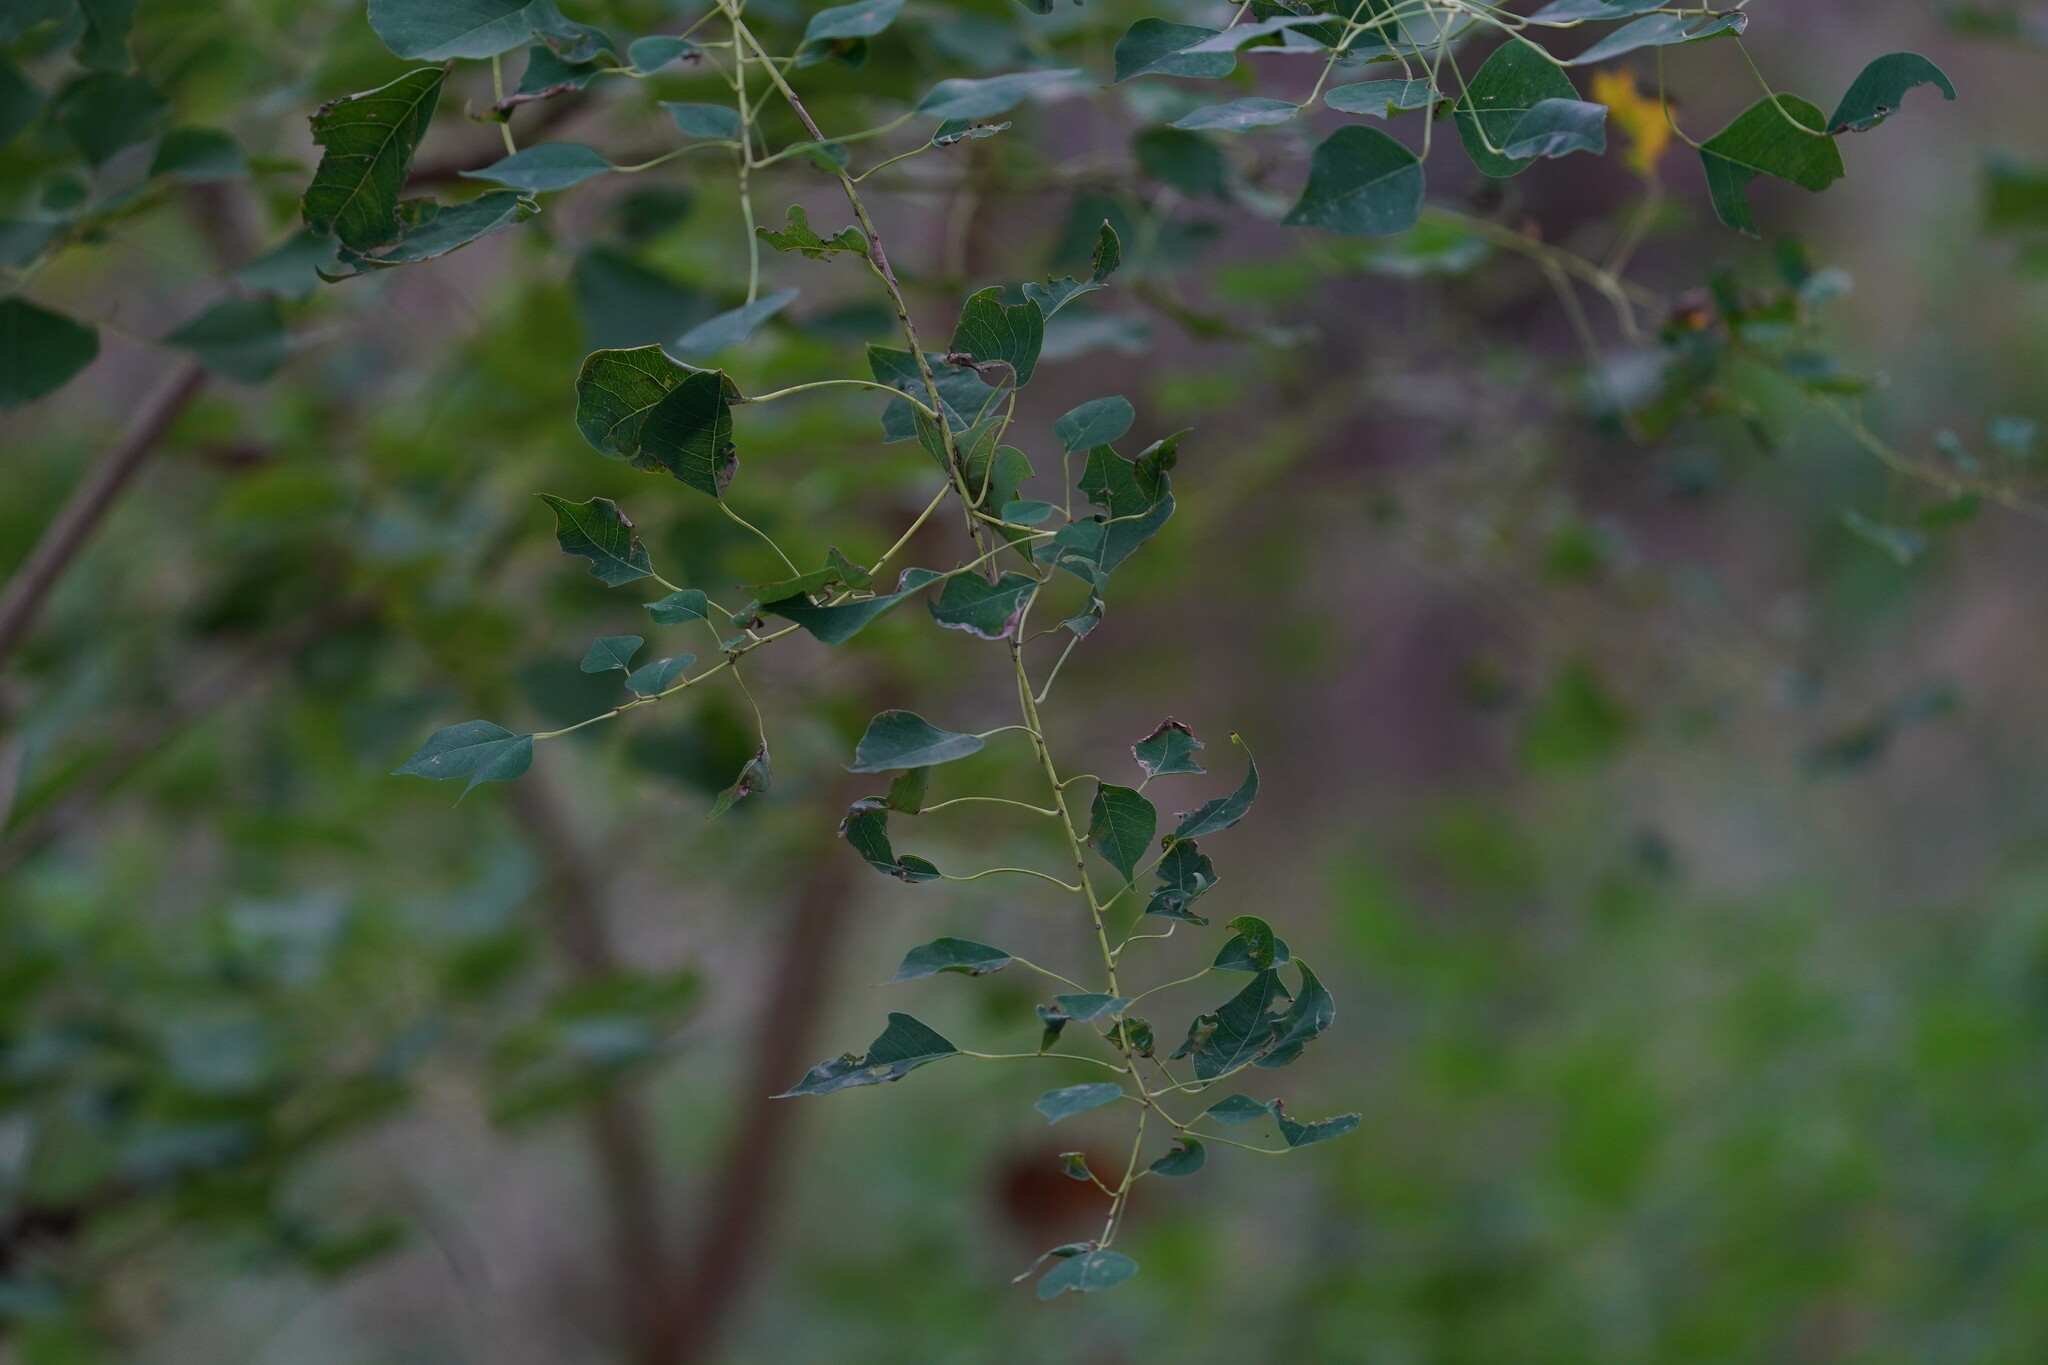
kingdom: Plantae
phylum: Tracheophyta
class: Magnoliopsida
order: Malpighiales
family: Euphorbiaceae
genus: Triadica
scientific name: Triadica sebifera
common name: Chinese tallow
